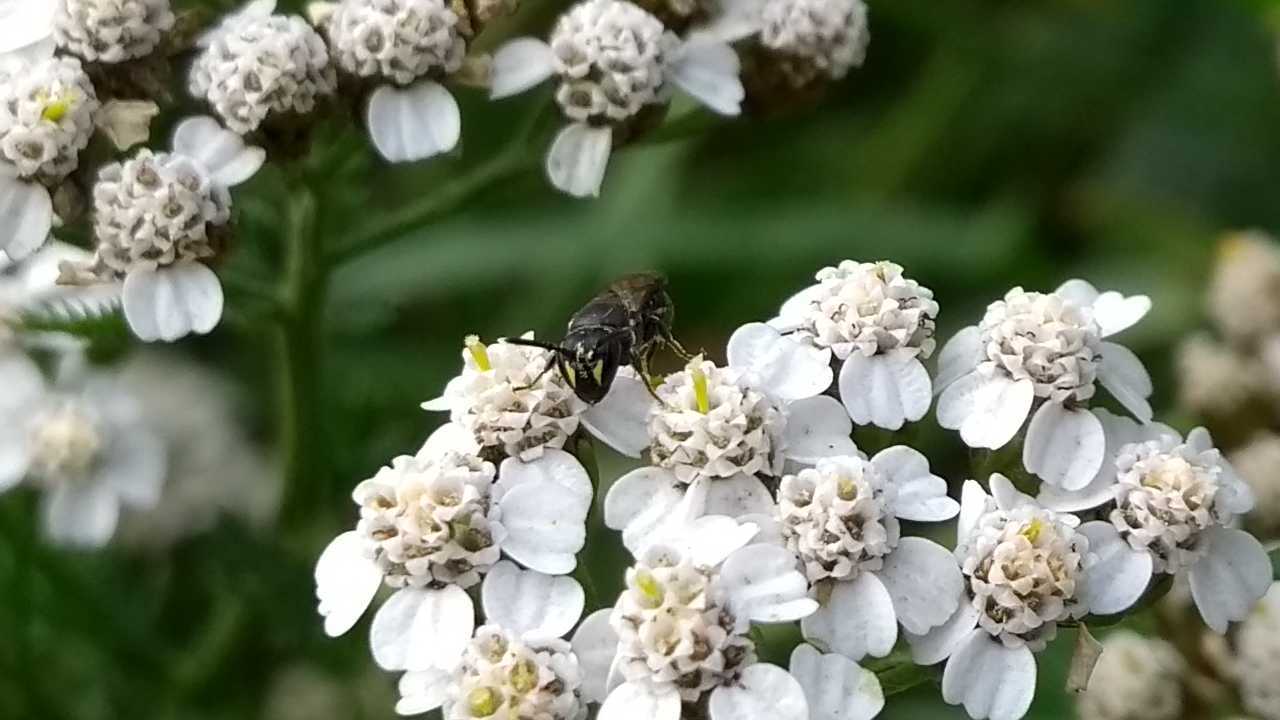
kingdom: Animalia
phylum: Arthropoda
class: Insecta
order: Hymenoptera
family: Colletidae
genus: Hylaeus
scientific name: Hylaeus
